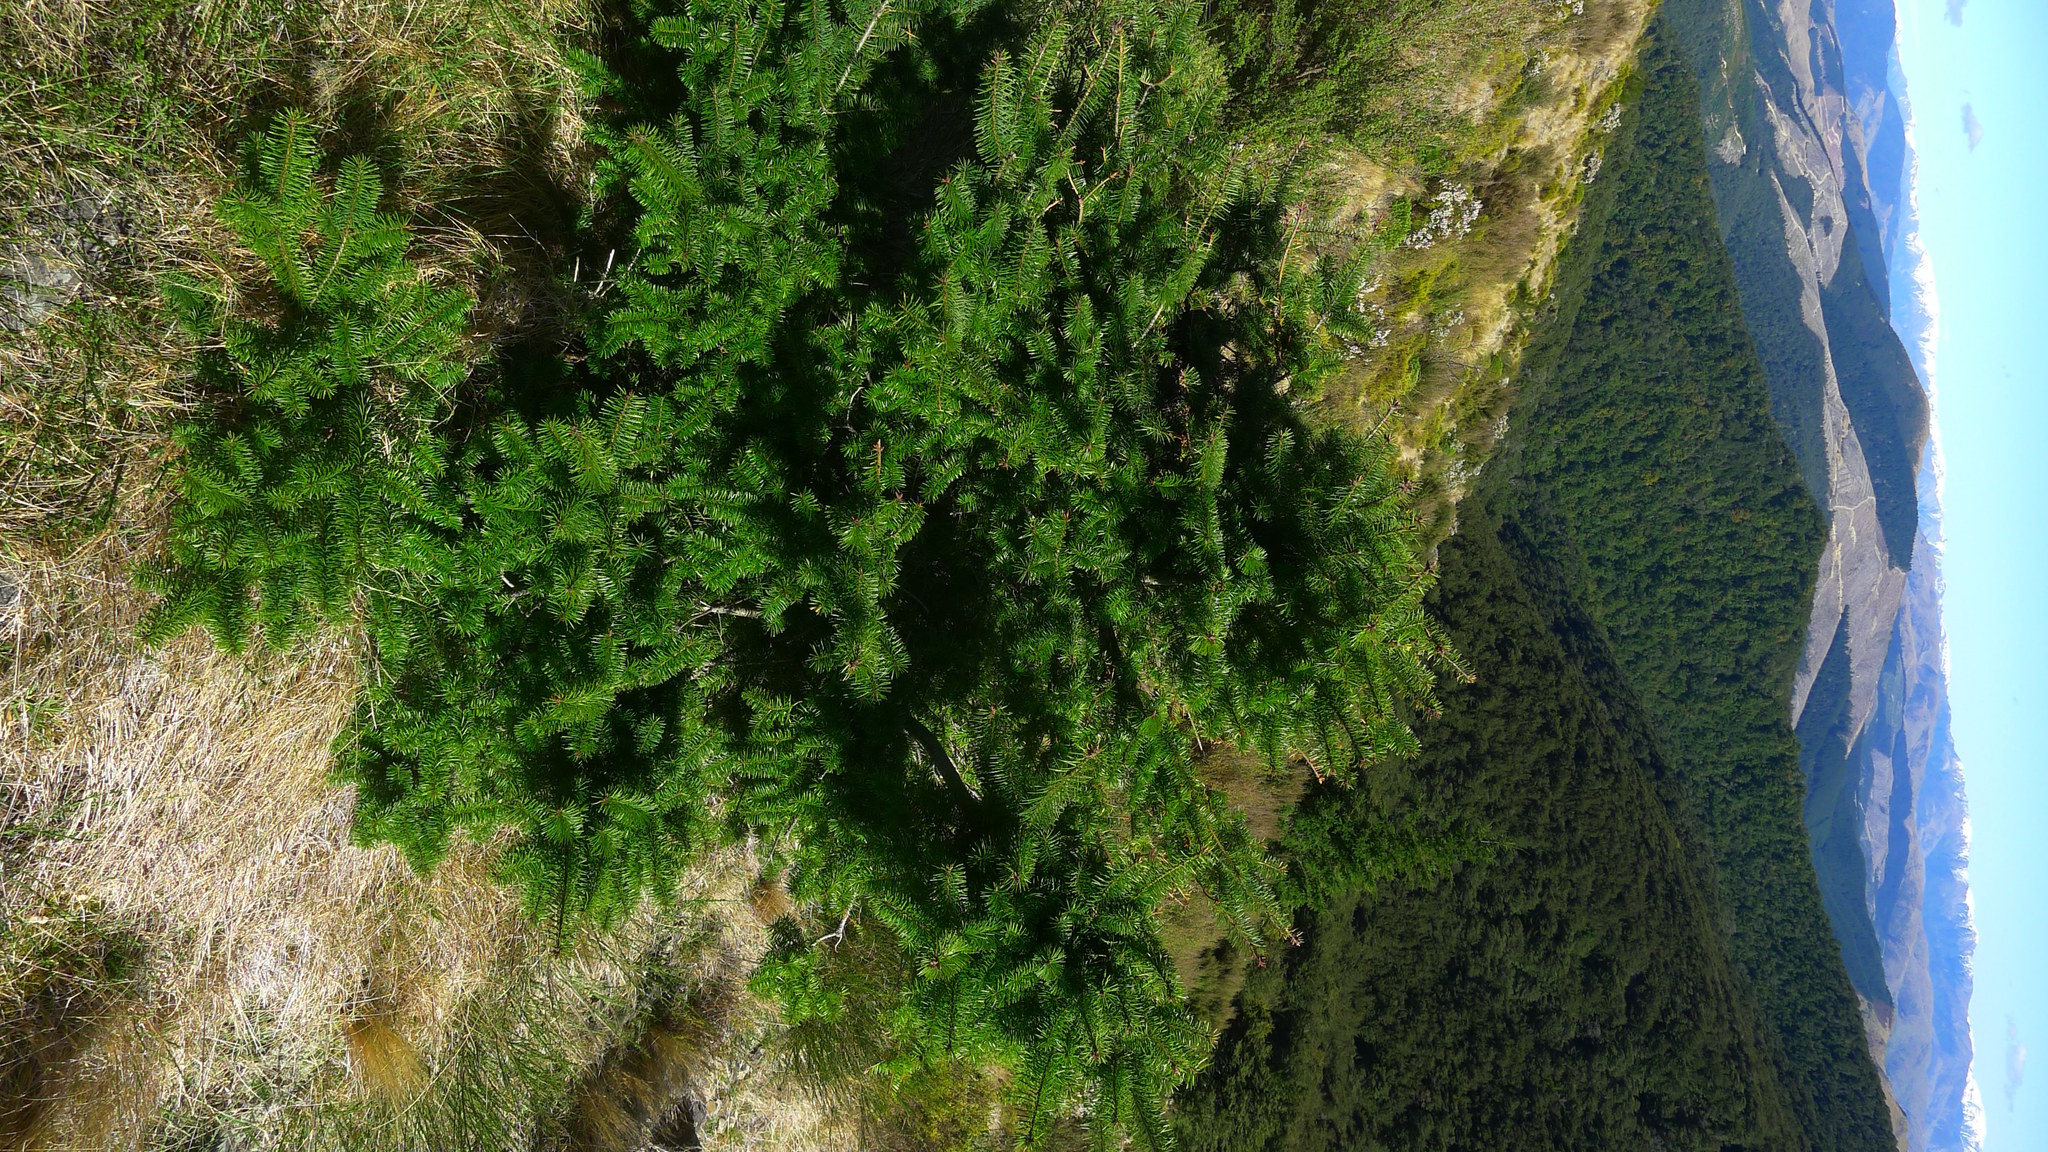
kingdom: Plantae
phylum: Tracheophyta
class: Pinopsida
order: Pinales
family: Pinaceae
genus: Pseudotsuga
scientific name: Pseudotsuga menziesii
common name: Douglas fir
